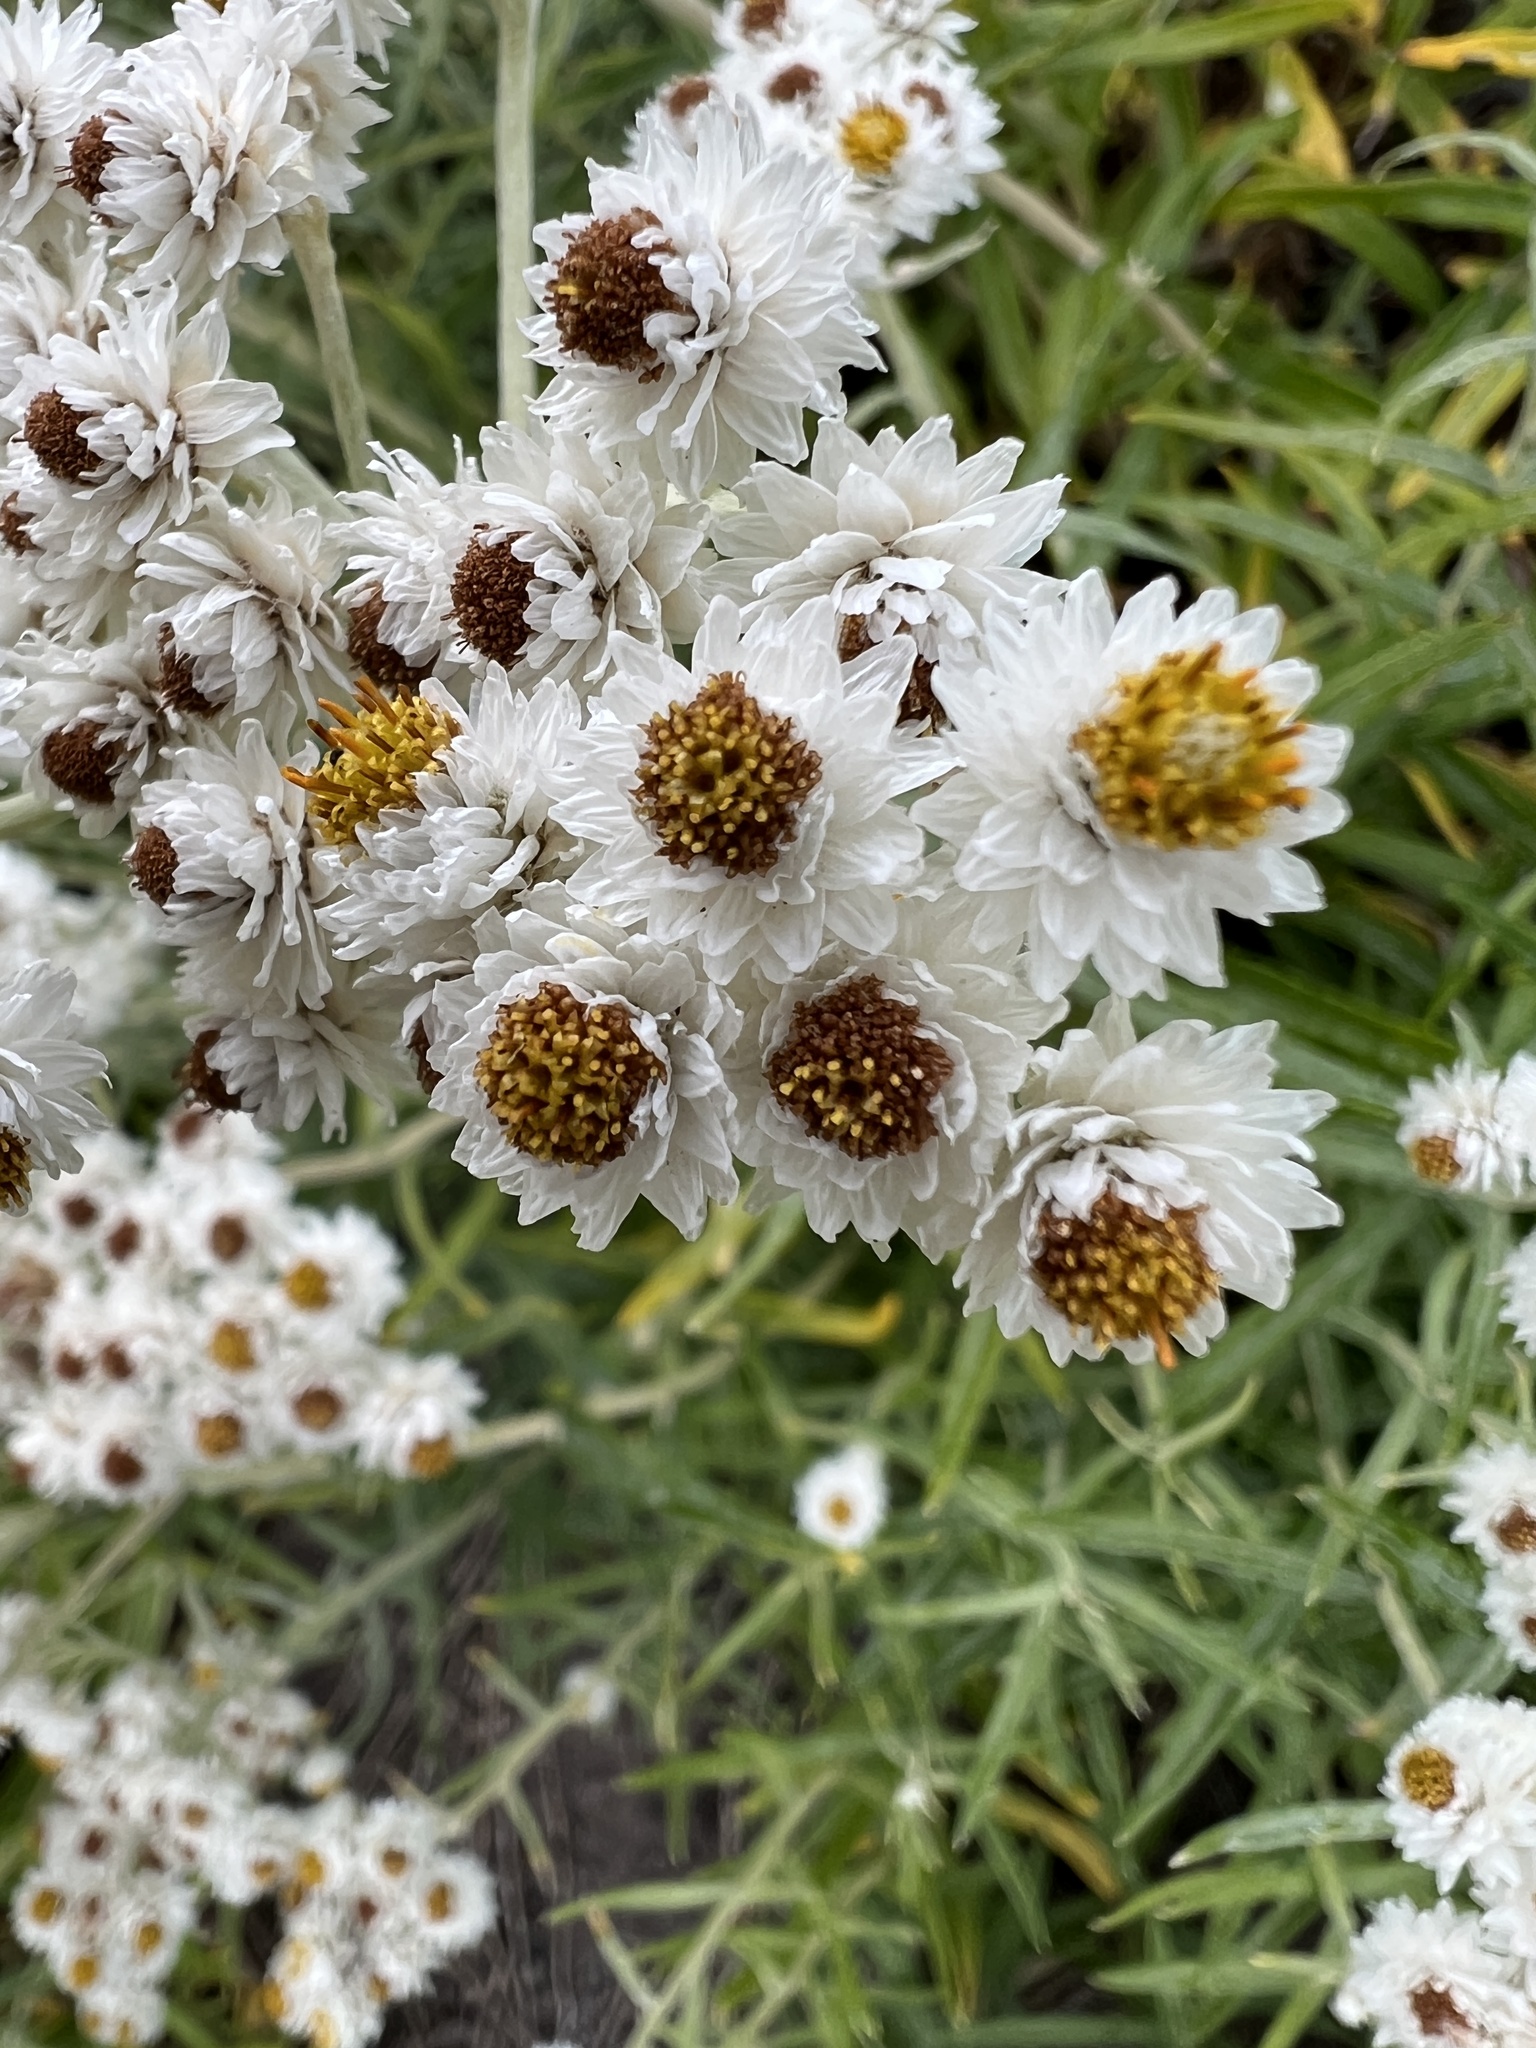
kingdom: Plantae
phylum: Tracheophyta
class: Magnoliopsida
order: Asterales
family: Asteraceae
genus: Anaphalis
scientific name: Anaphalis margaritacea
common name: Pearly everlasting
